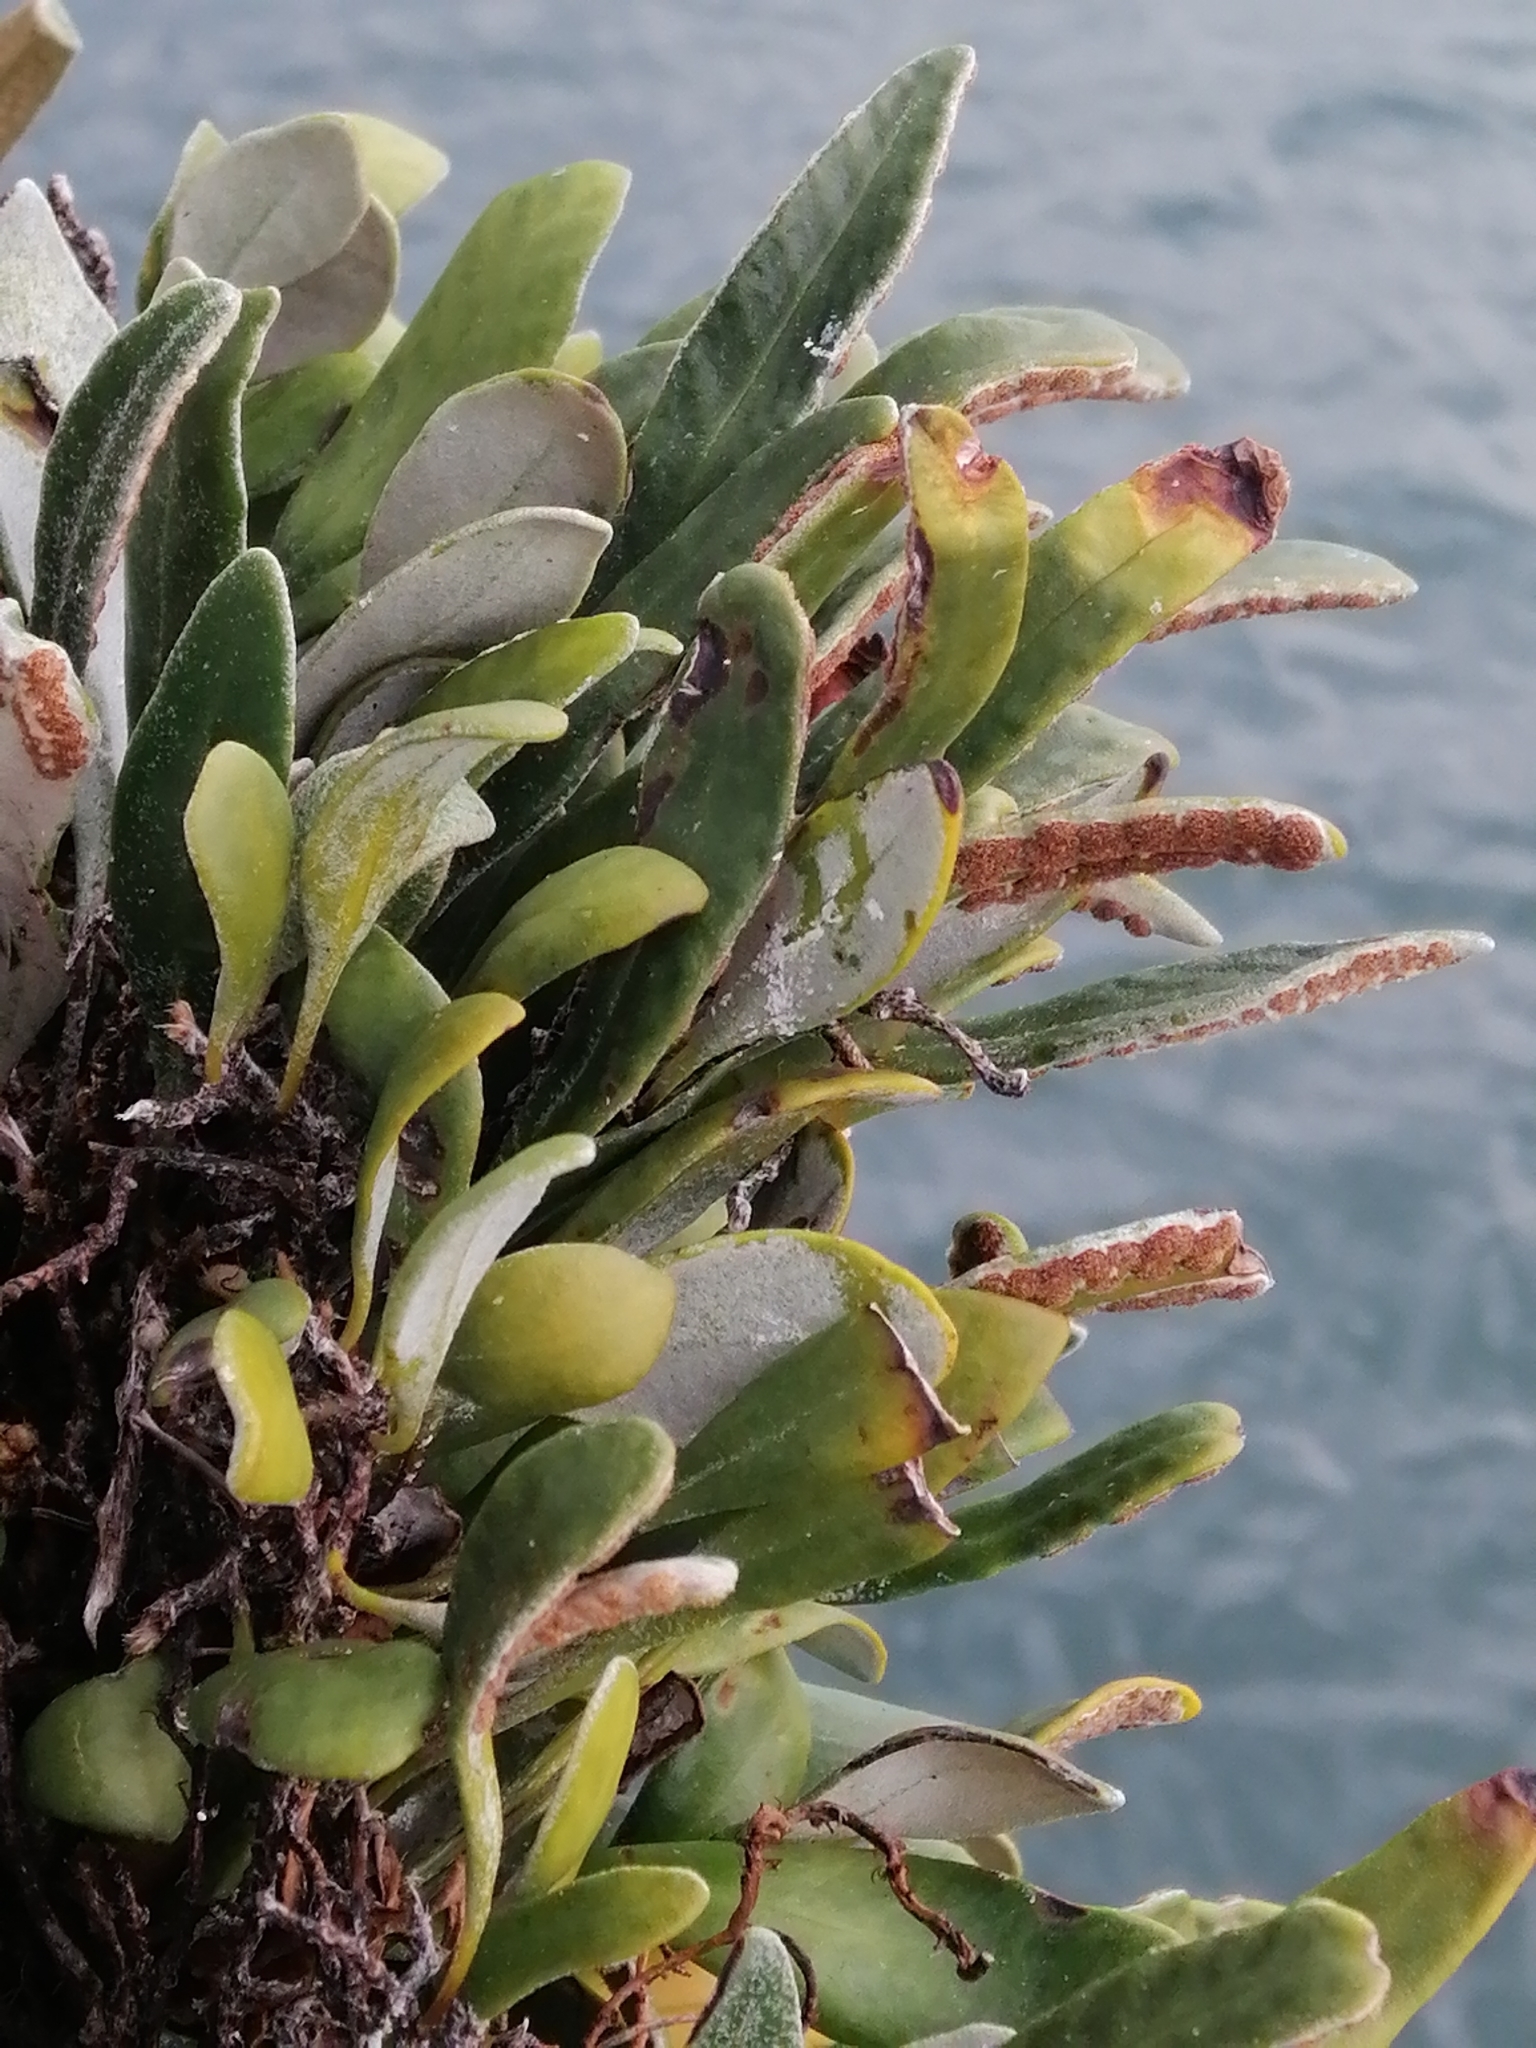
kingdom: Plantae
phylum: Tracheophyta
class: Polypodiopsida
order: Polypodiales
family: Polypodiaceae
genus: Pyrrosia
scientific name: Pyrrosia eleagnifolia
